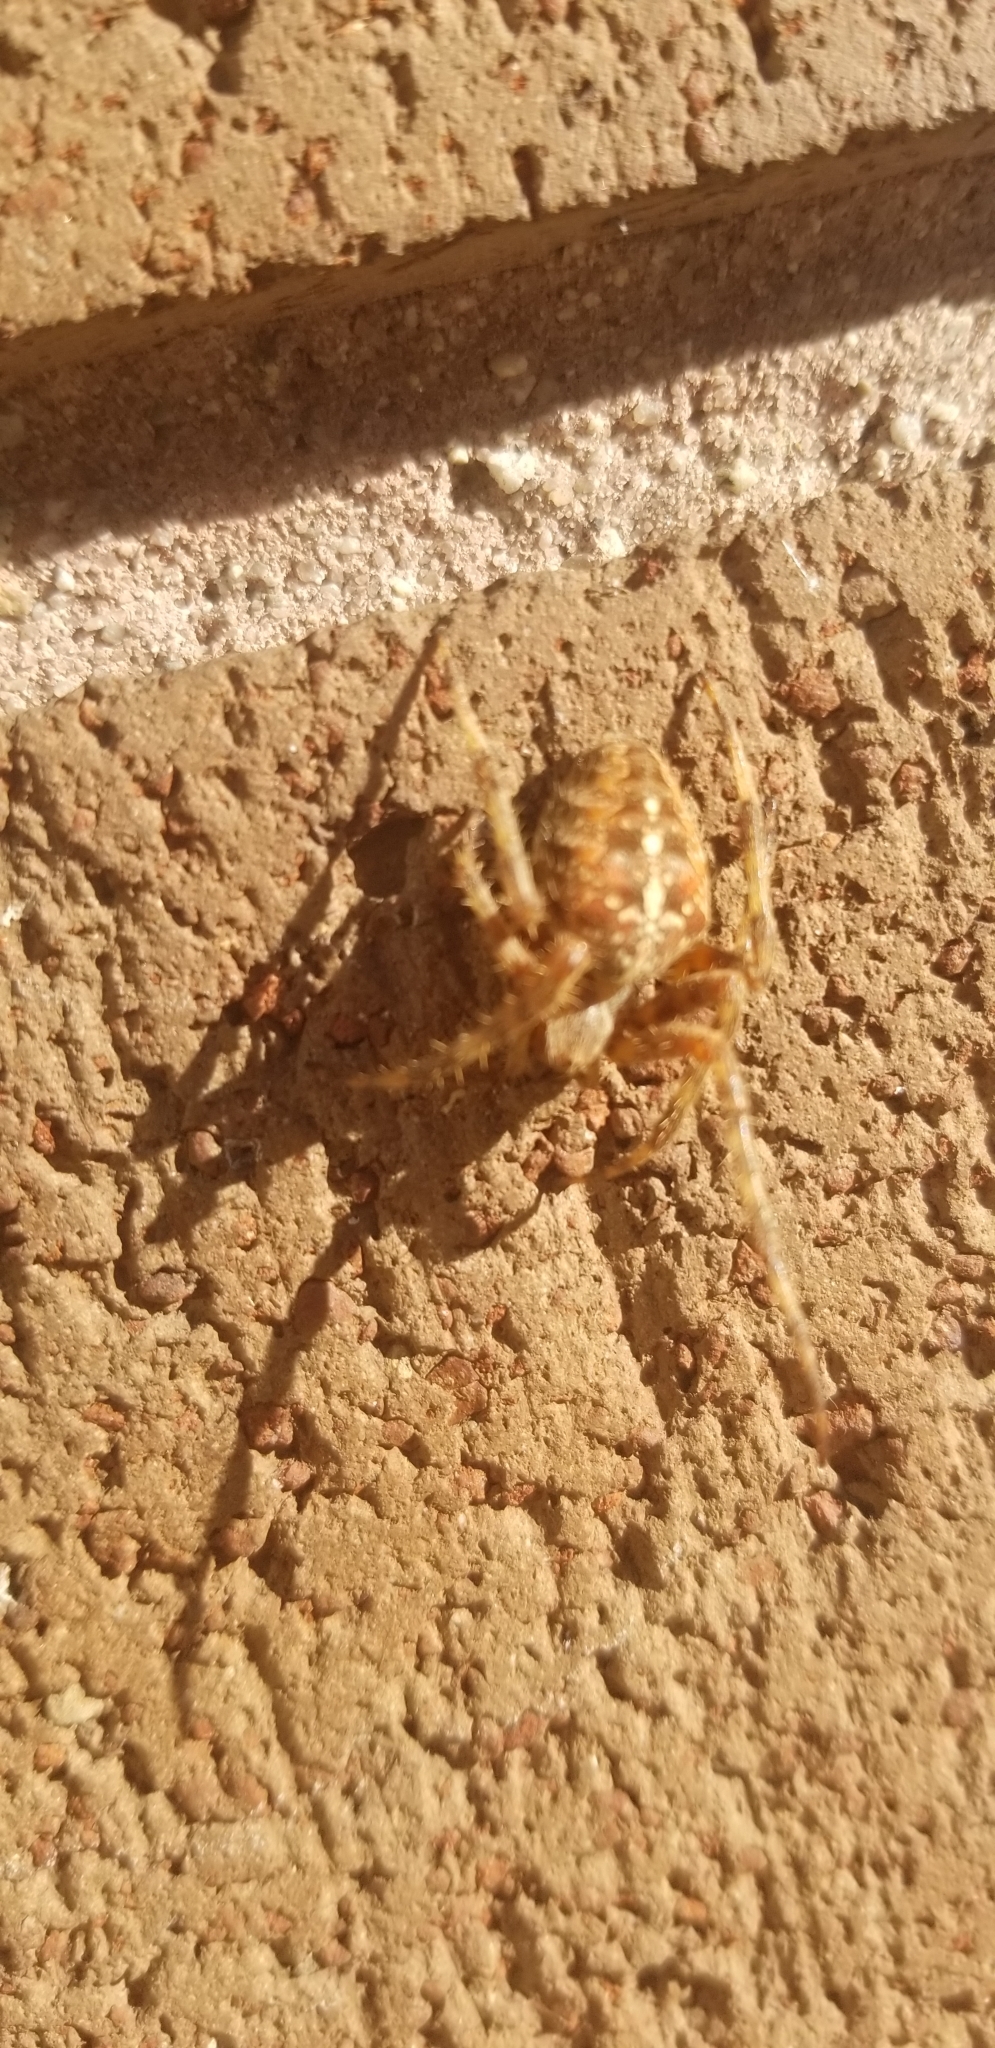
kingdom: Animalia
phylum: Arthropoda
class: Arachnida
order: Araneae
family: Araneidae
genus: Araneus
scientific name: Araneus diadematus
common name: Cross orbweaver
